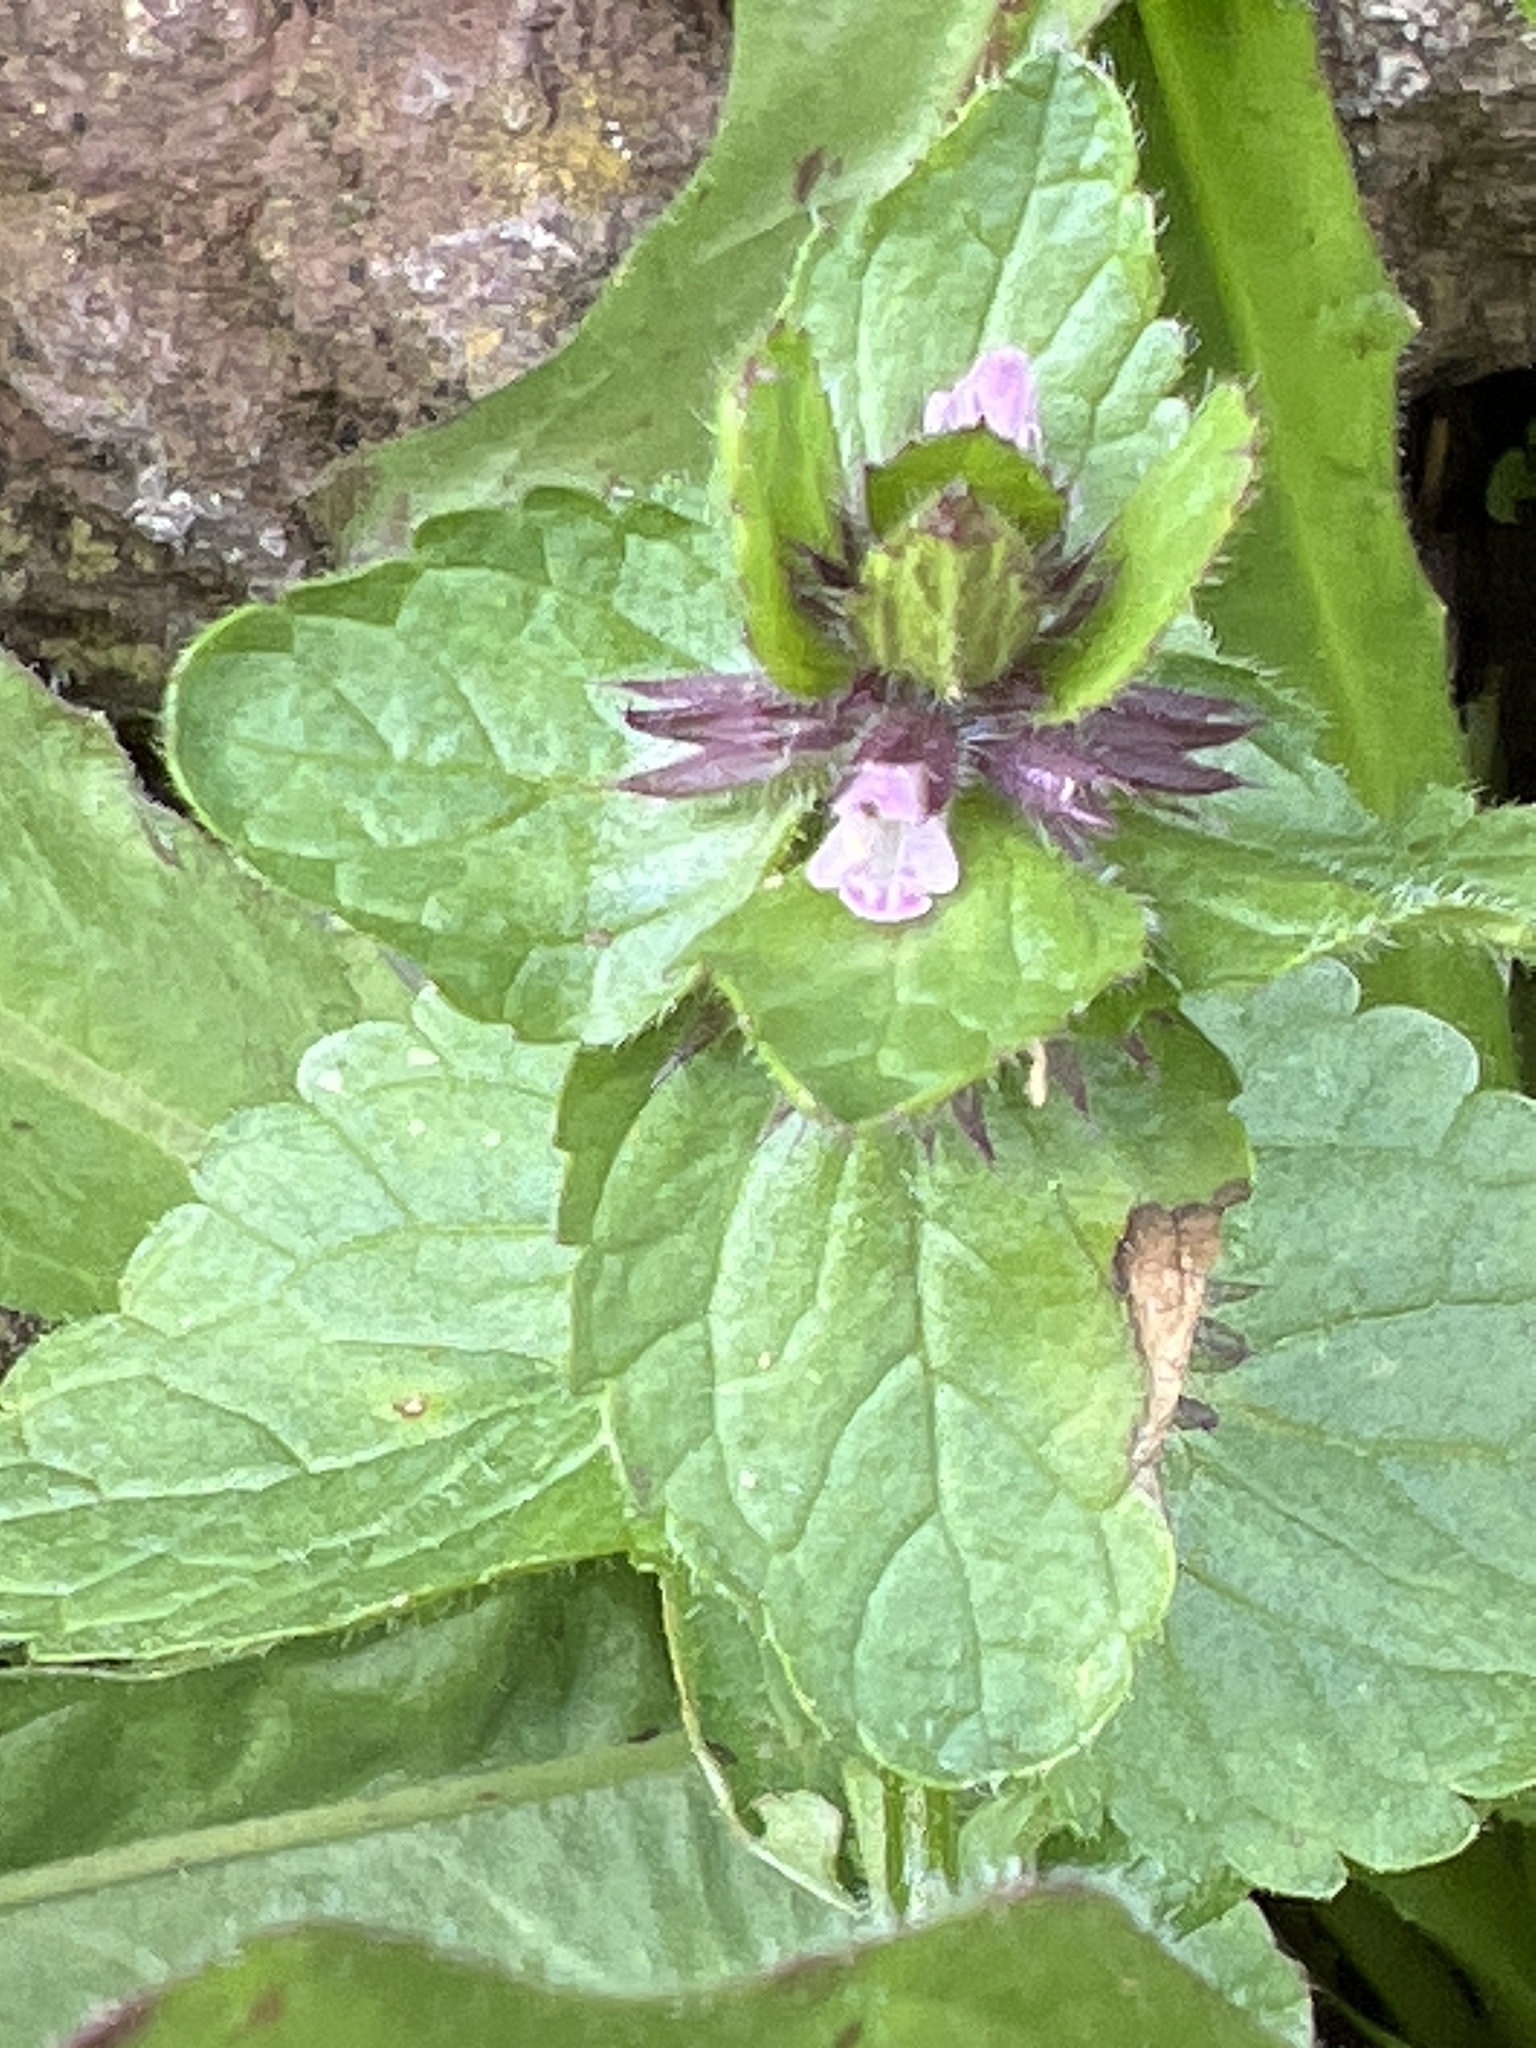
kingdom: Plantae
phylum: Tracheophyta
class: Magnoliopsida
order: Lamiales
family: Lamiaceae
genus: Stachys
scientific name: Stachys arvensis
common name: Field woundwort
